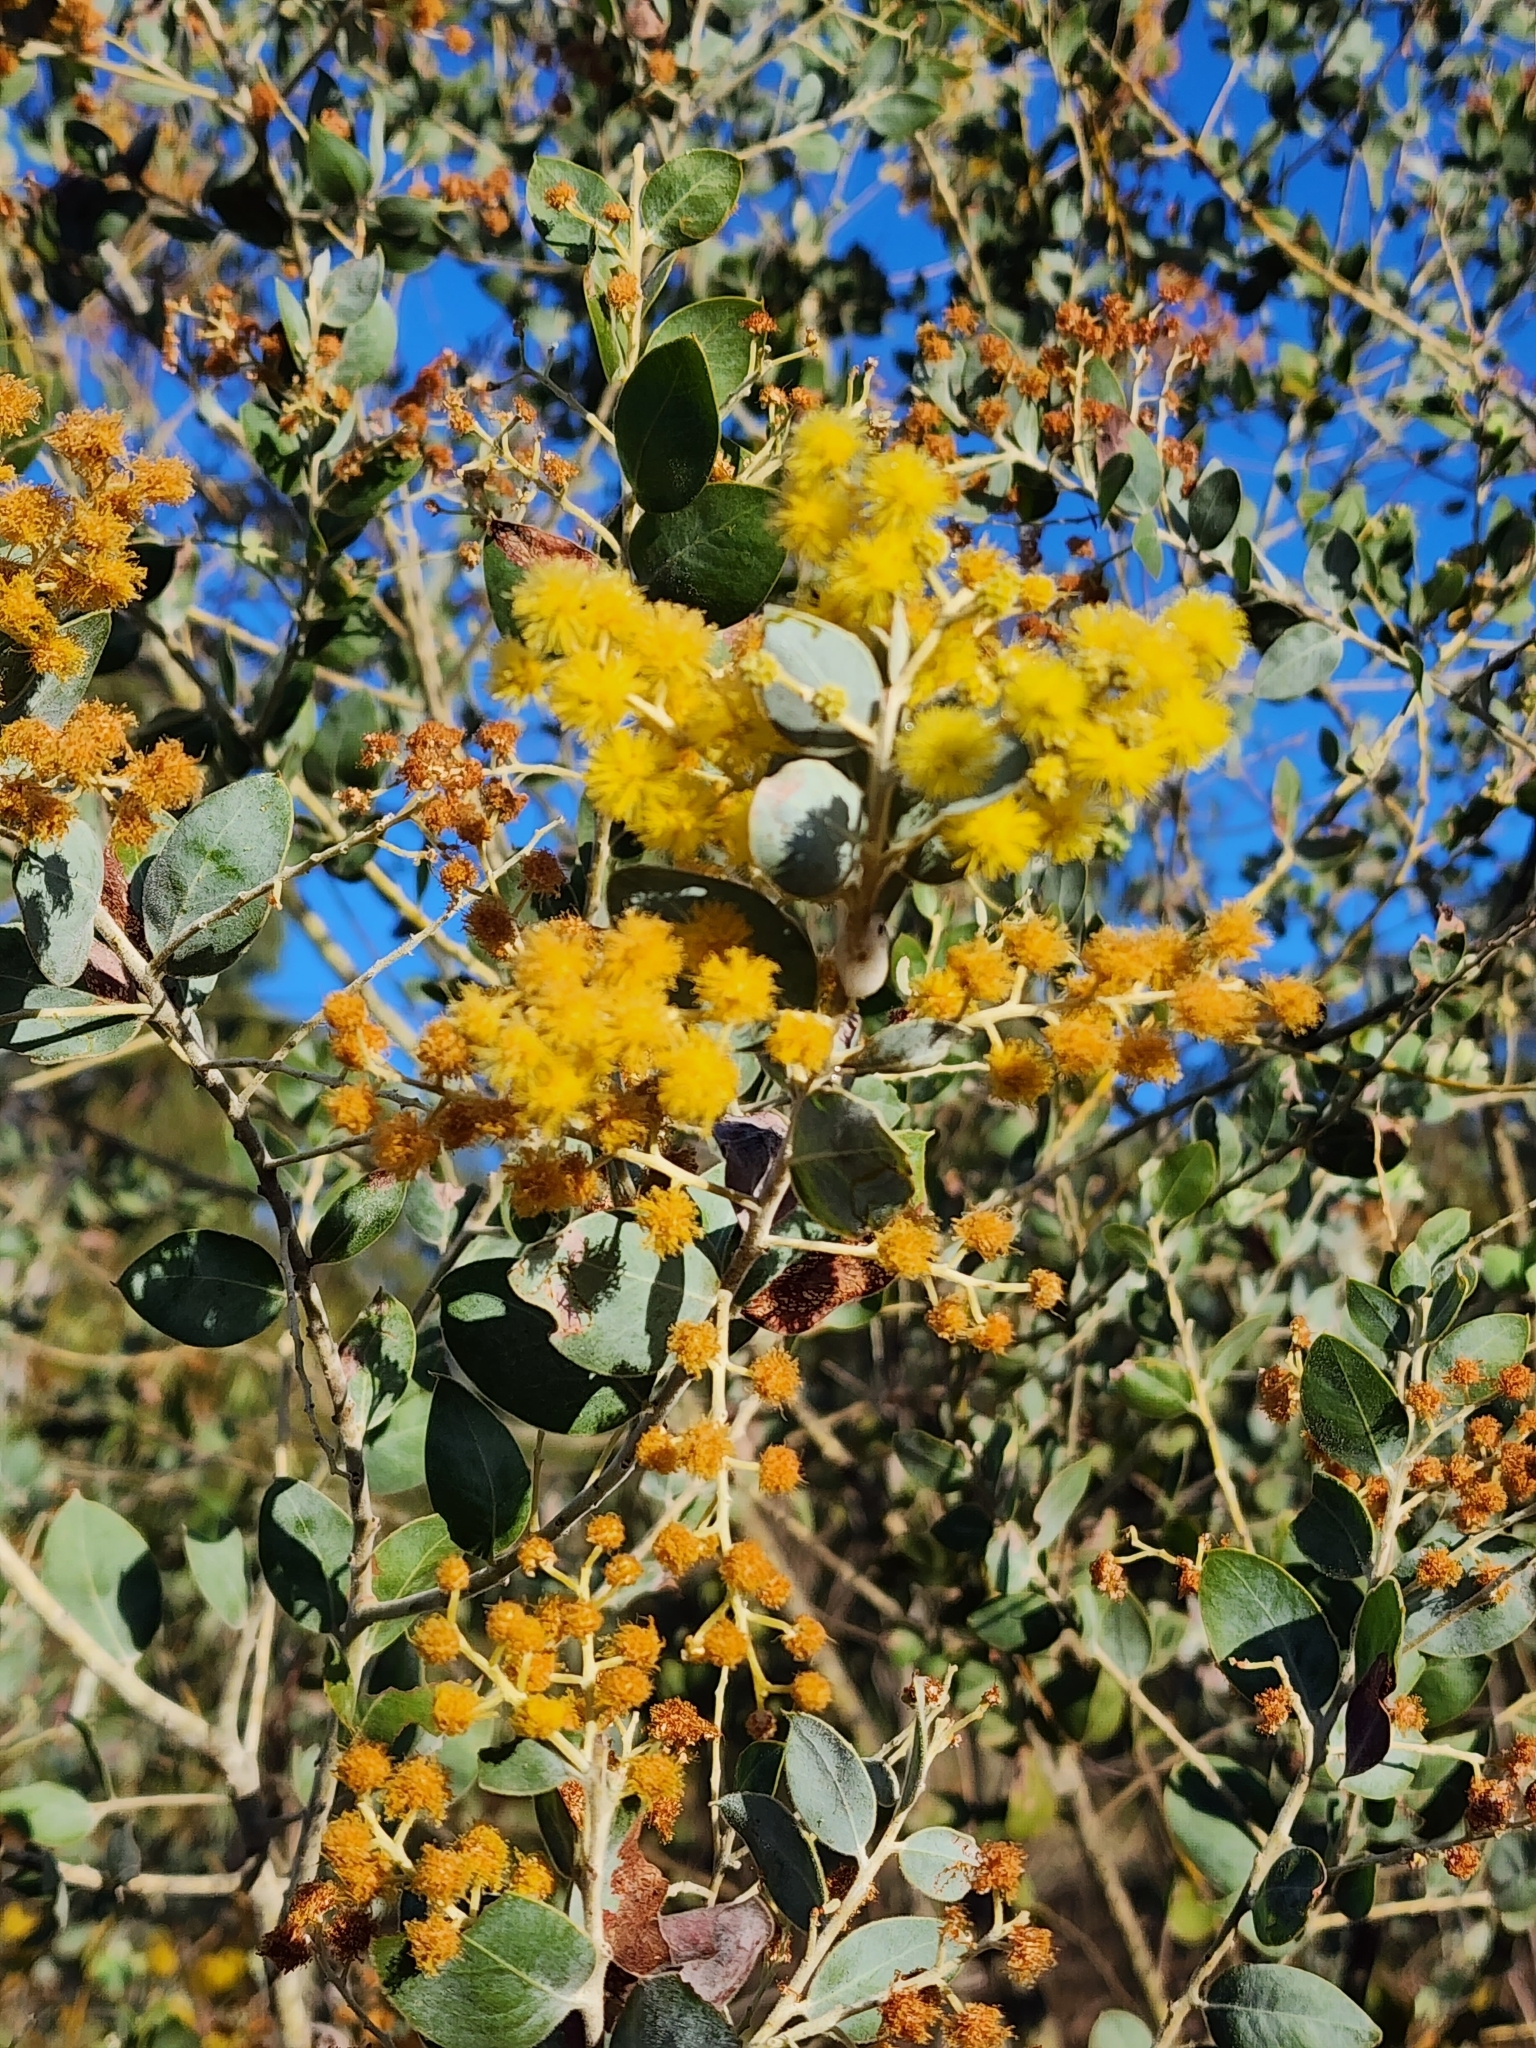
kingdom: Plantae
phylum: Tracheophyta
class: Magnoliopsida
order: Fabales
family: Fabaceae
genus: Acacia
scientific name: Acacia podalyriifolia
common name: Pearl wattle
